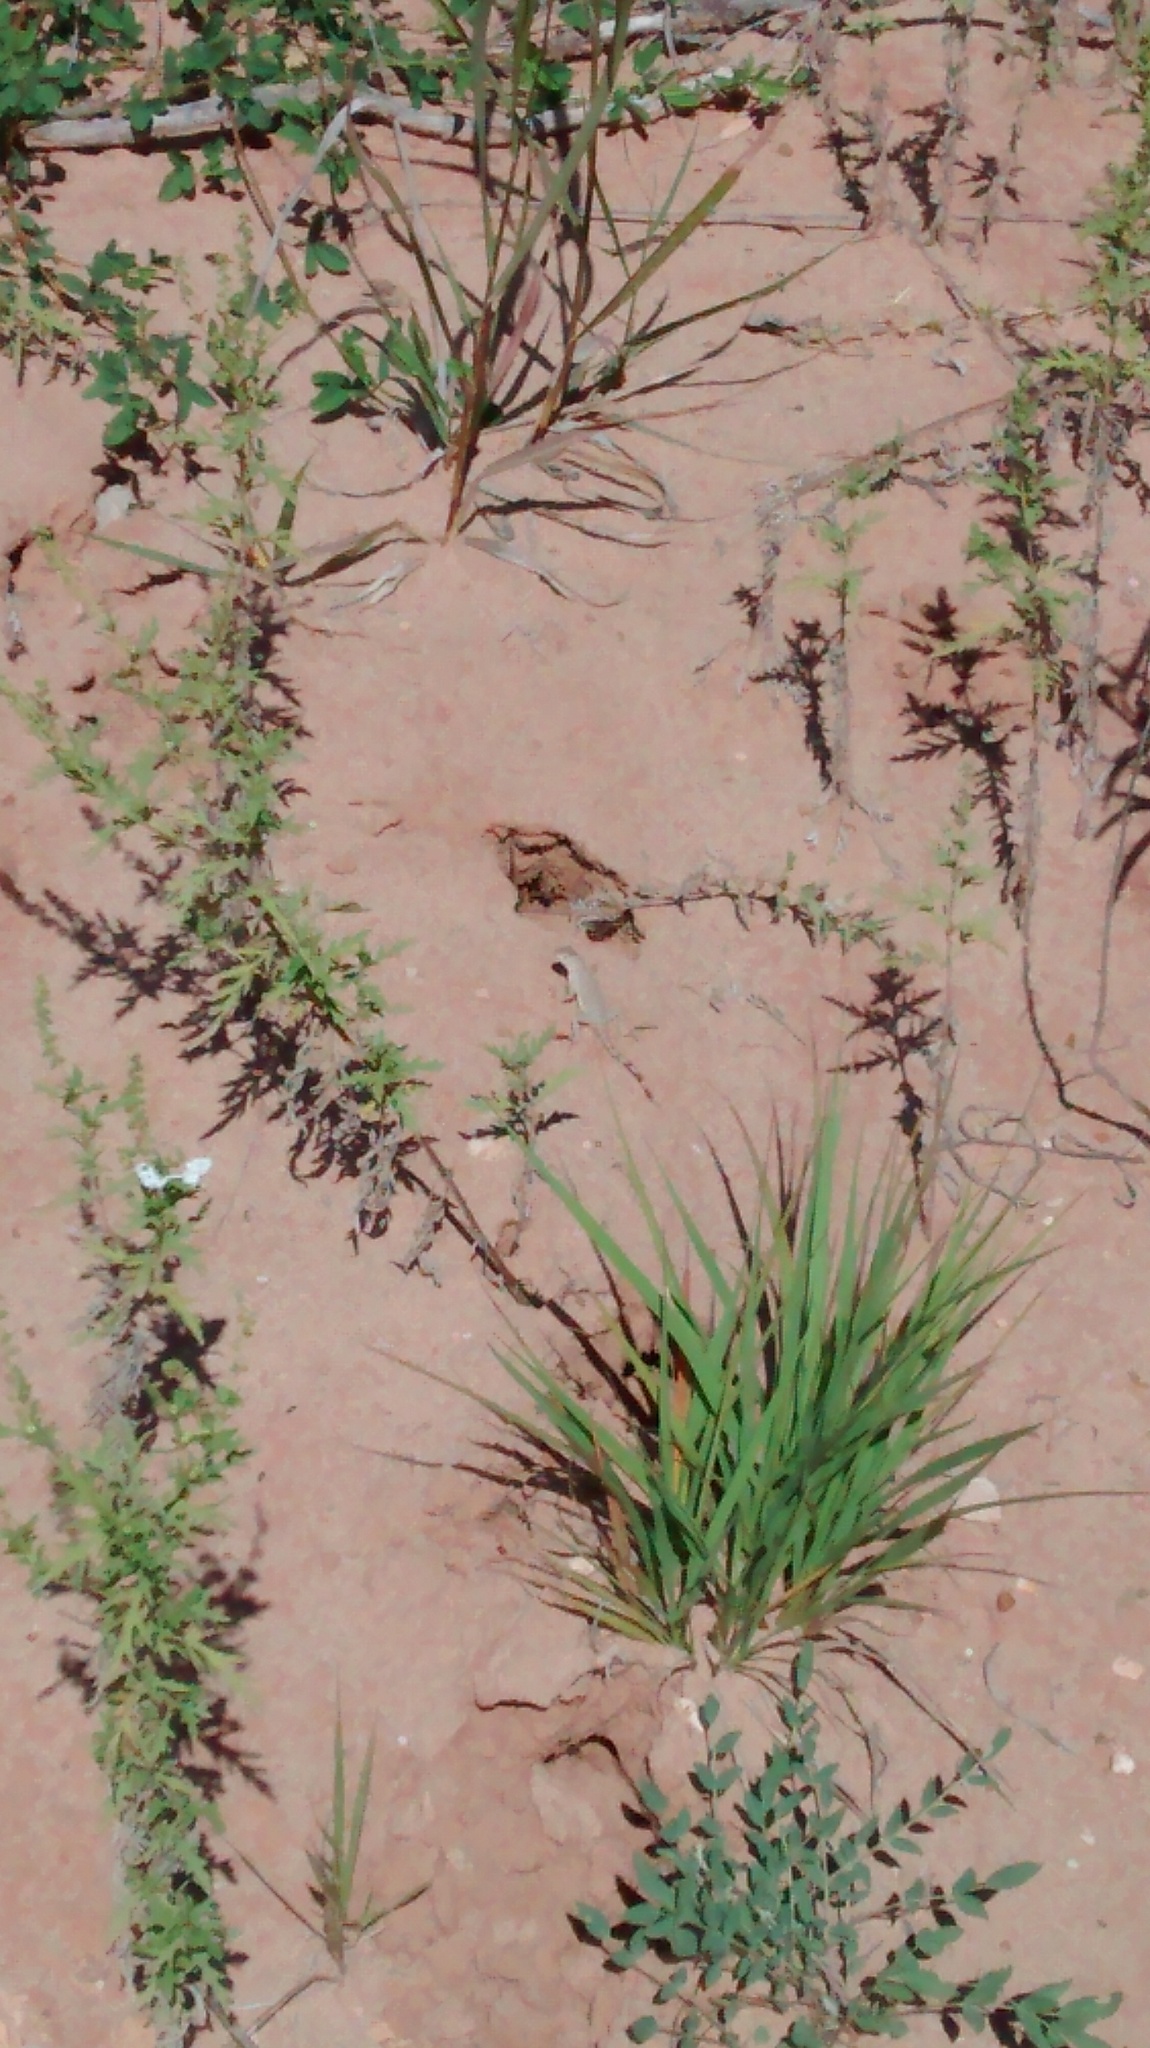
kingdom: Animalia
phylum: Chordata
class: Squamata
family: Phrynosomatidae
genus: Cophosaurus
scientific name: Cophosaurus texanus
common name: Greater earless lizard
